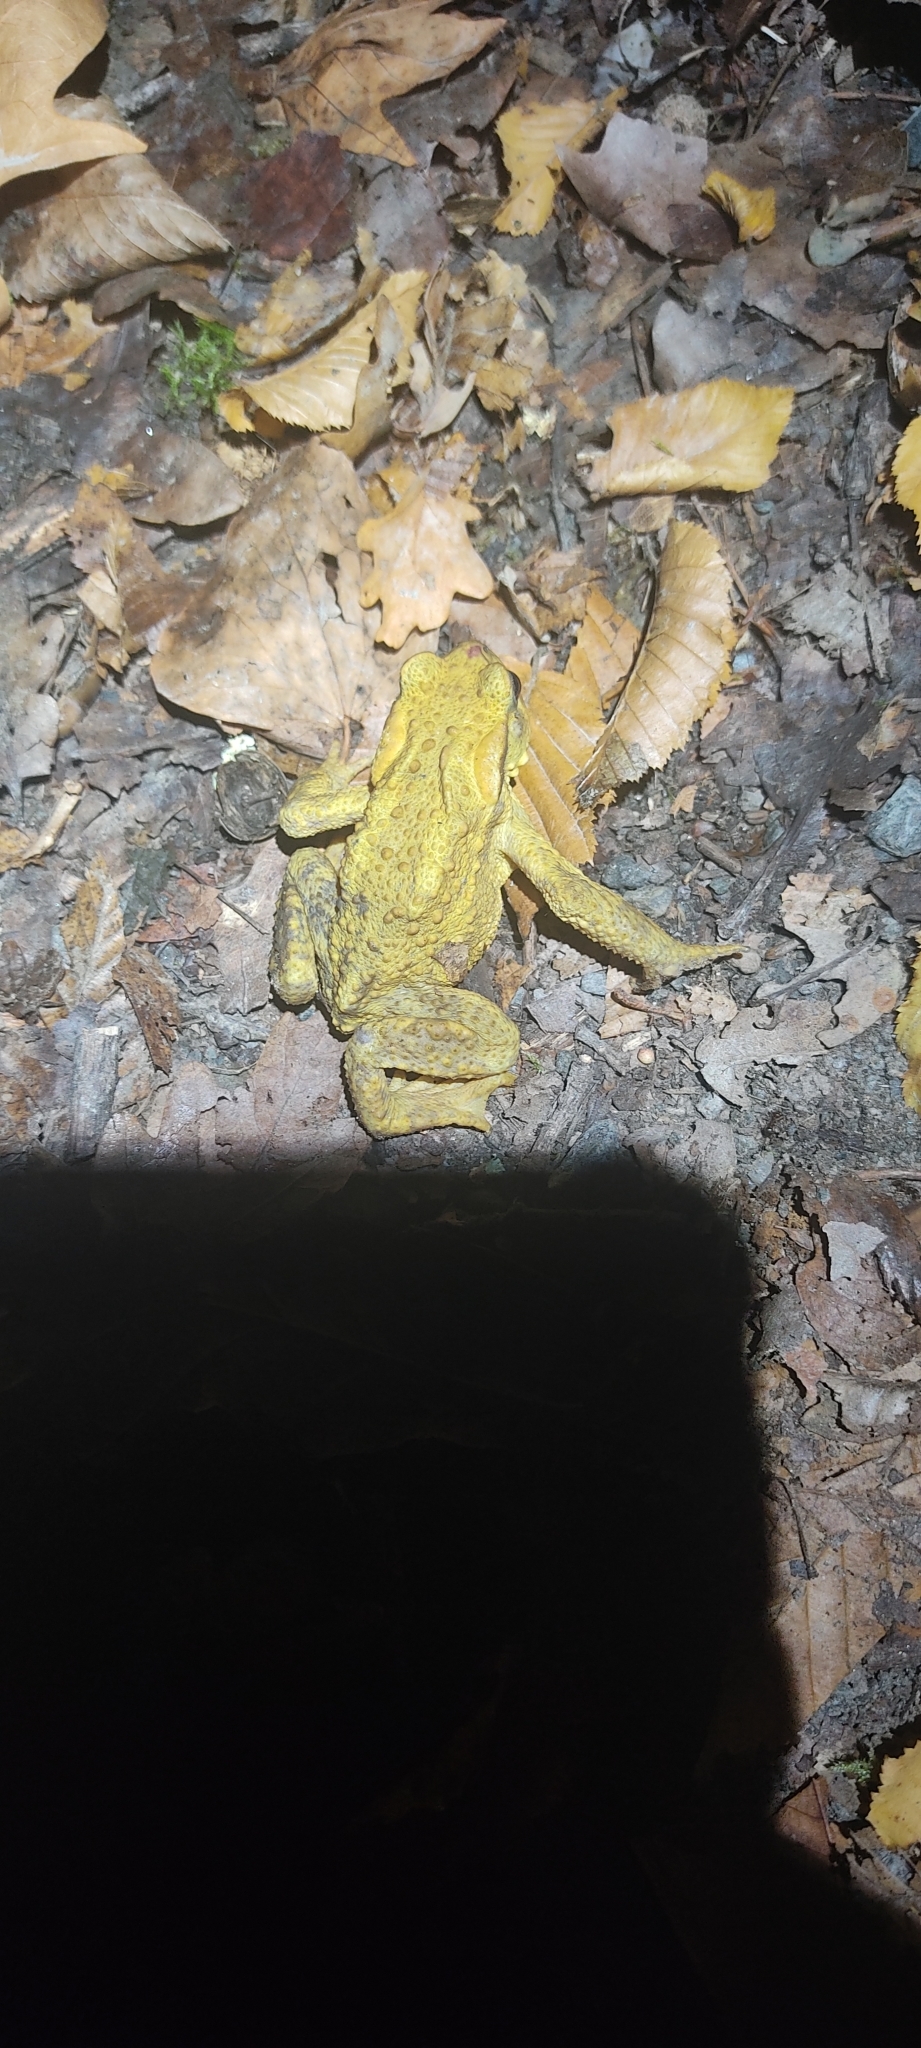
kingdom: Animalia
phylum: Chordata
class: Amphibia
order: Anura
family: Bufonidae
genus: Bufo
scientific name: Bufo spinosus
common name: Western common toad
